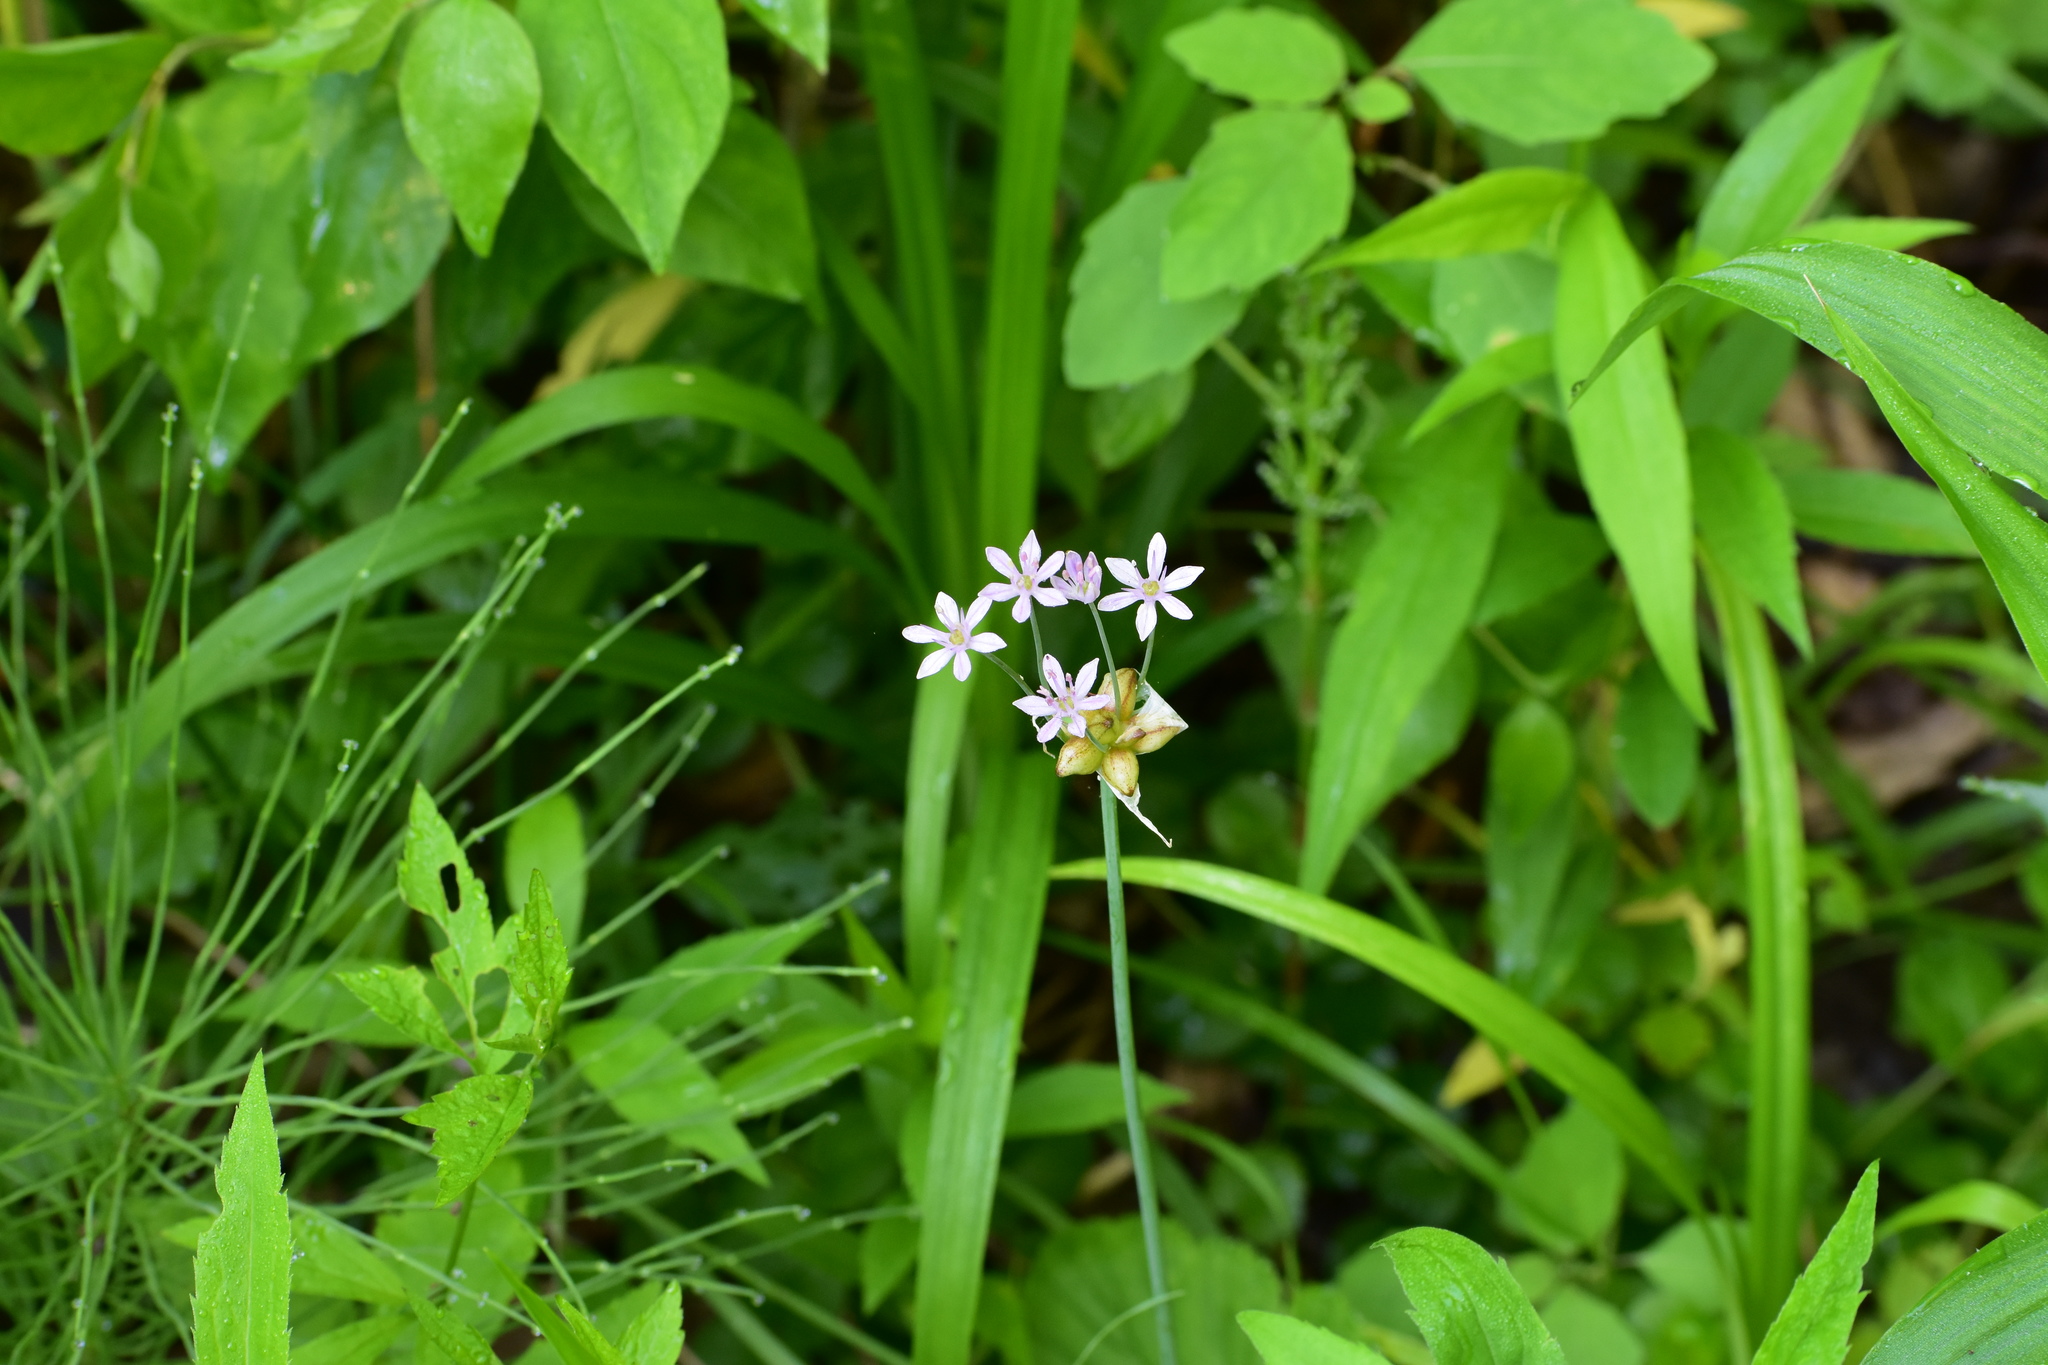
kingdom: Plantae
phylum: Tracheophyta
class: Liliopsida
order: Asparagales
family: Amaryllidaceae
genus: Allium
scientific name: Allium canadense
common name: Meadow garlic
